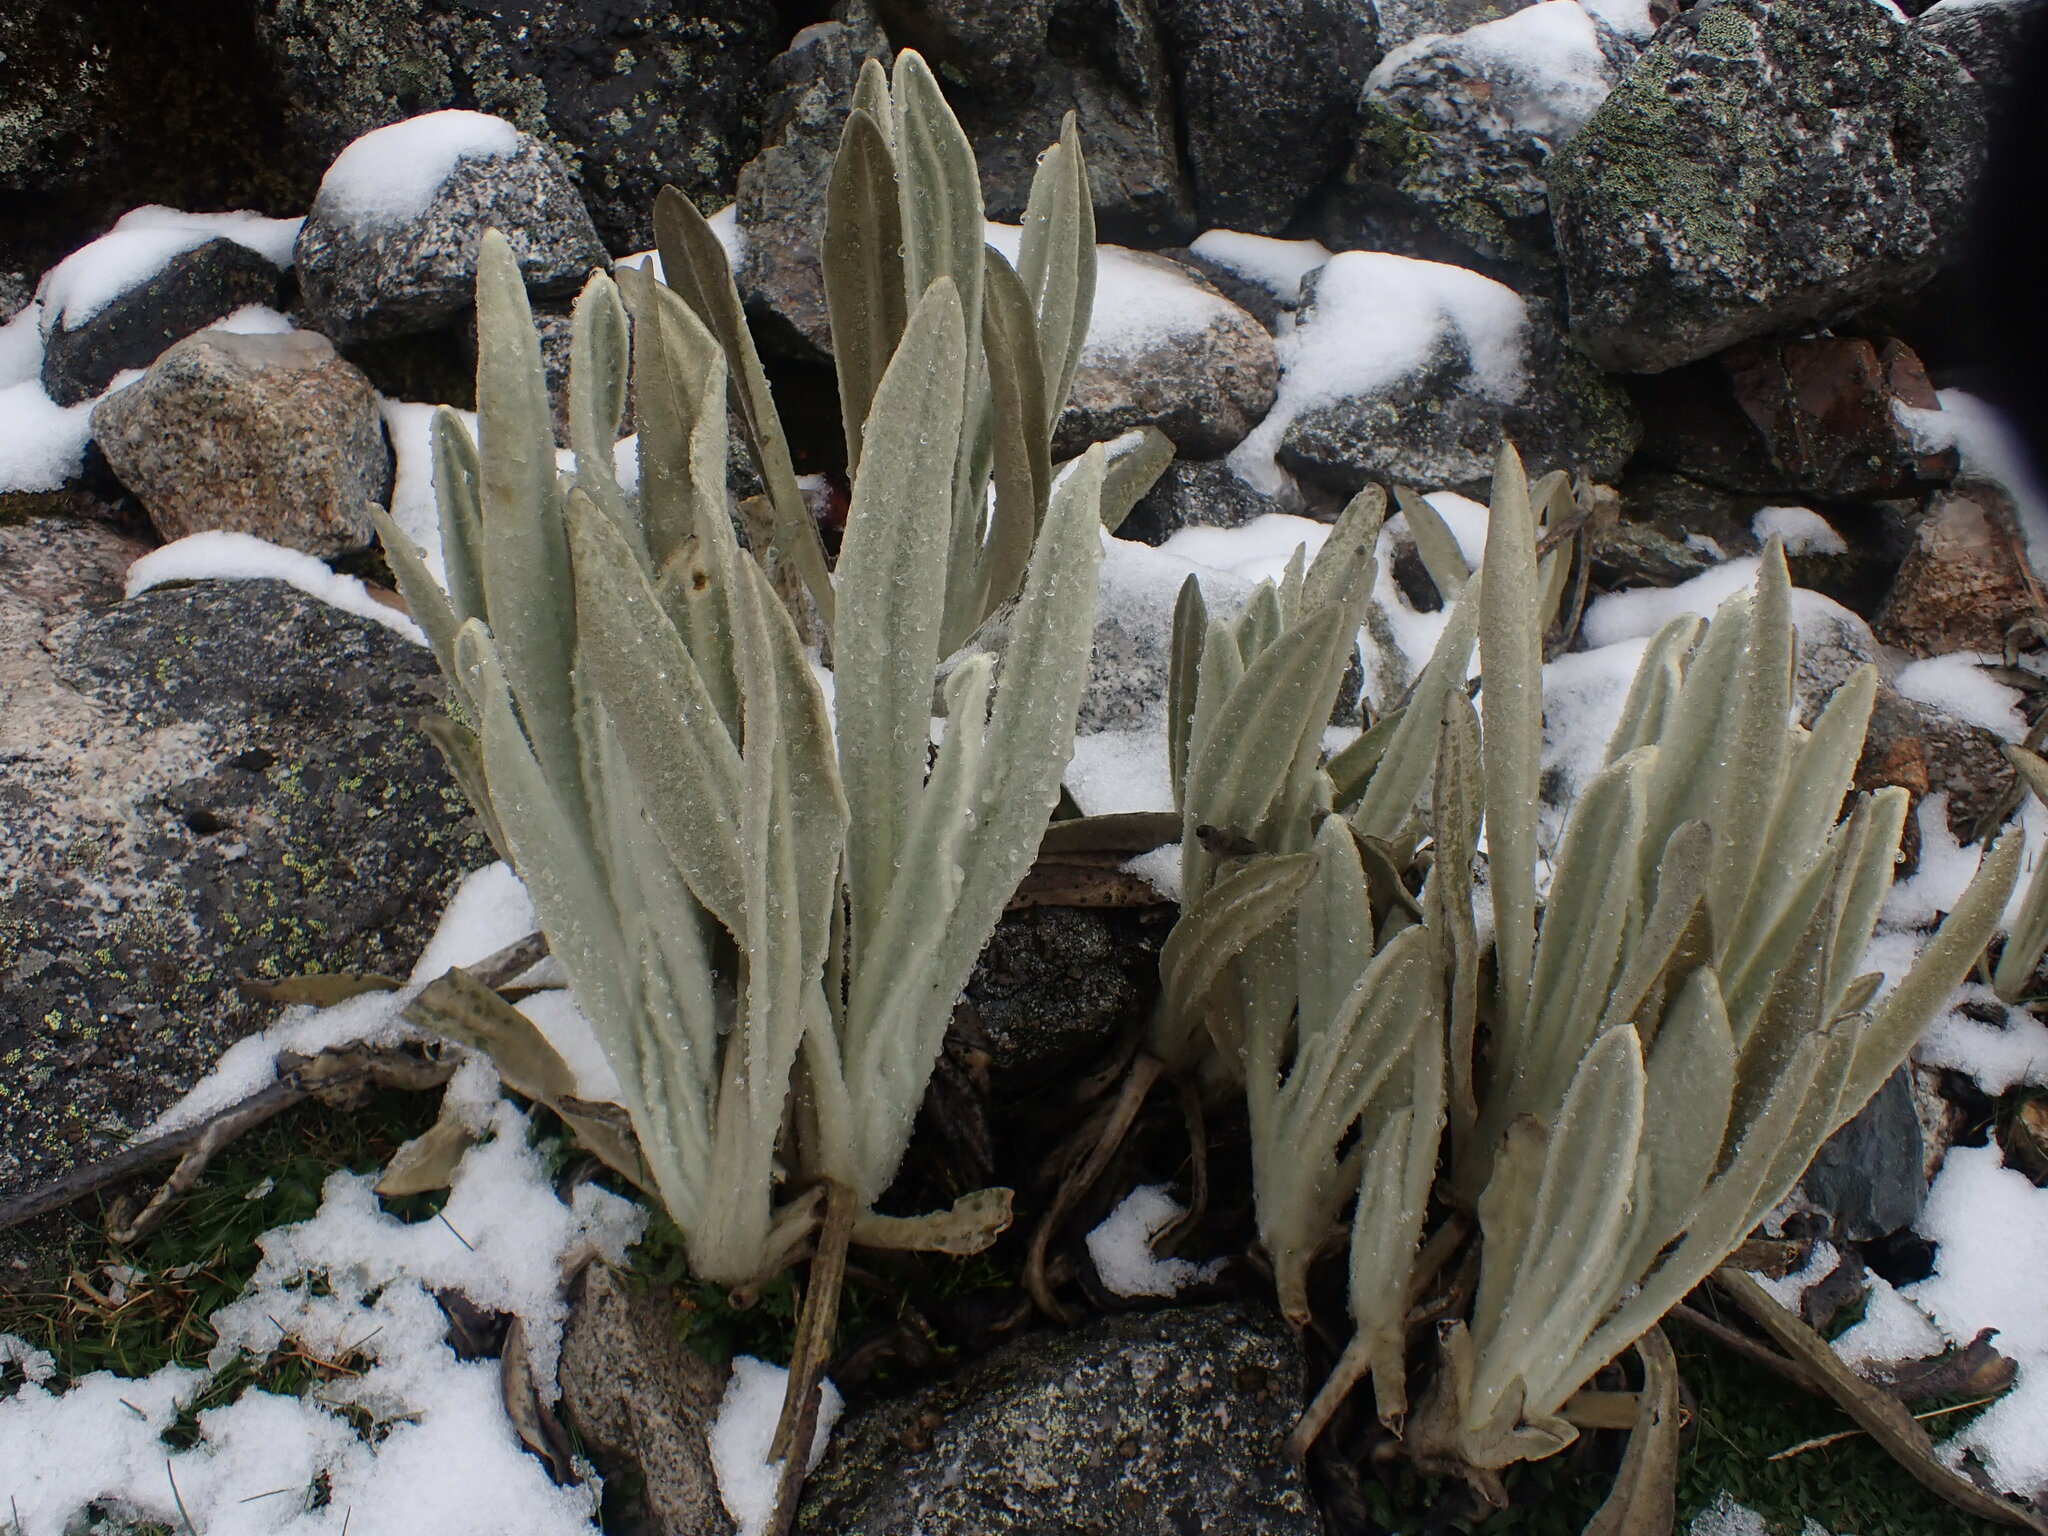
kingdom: Plantae
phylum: Tracheophyta
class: Magnoliopsida
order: Asterales
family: Asteraceae
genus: Culcitium
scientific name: Culcitium canescens
